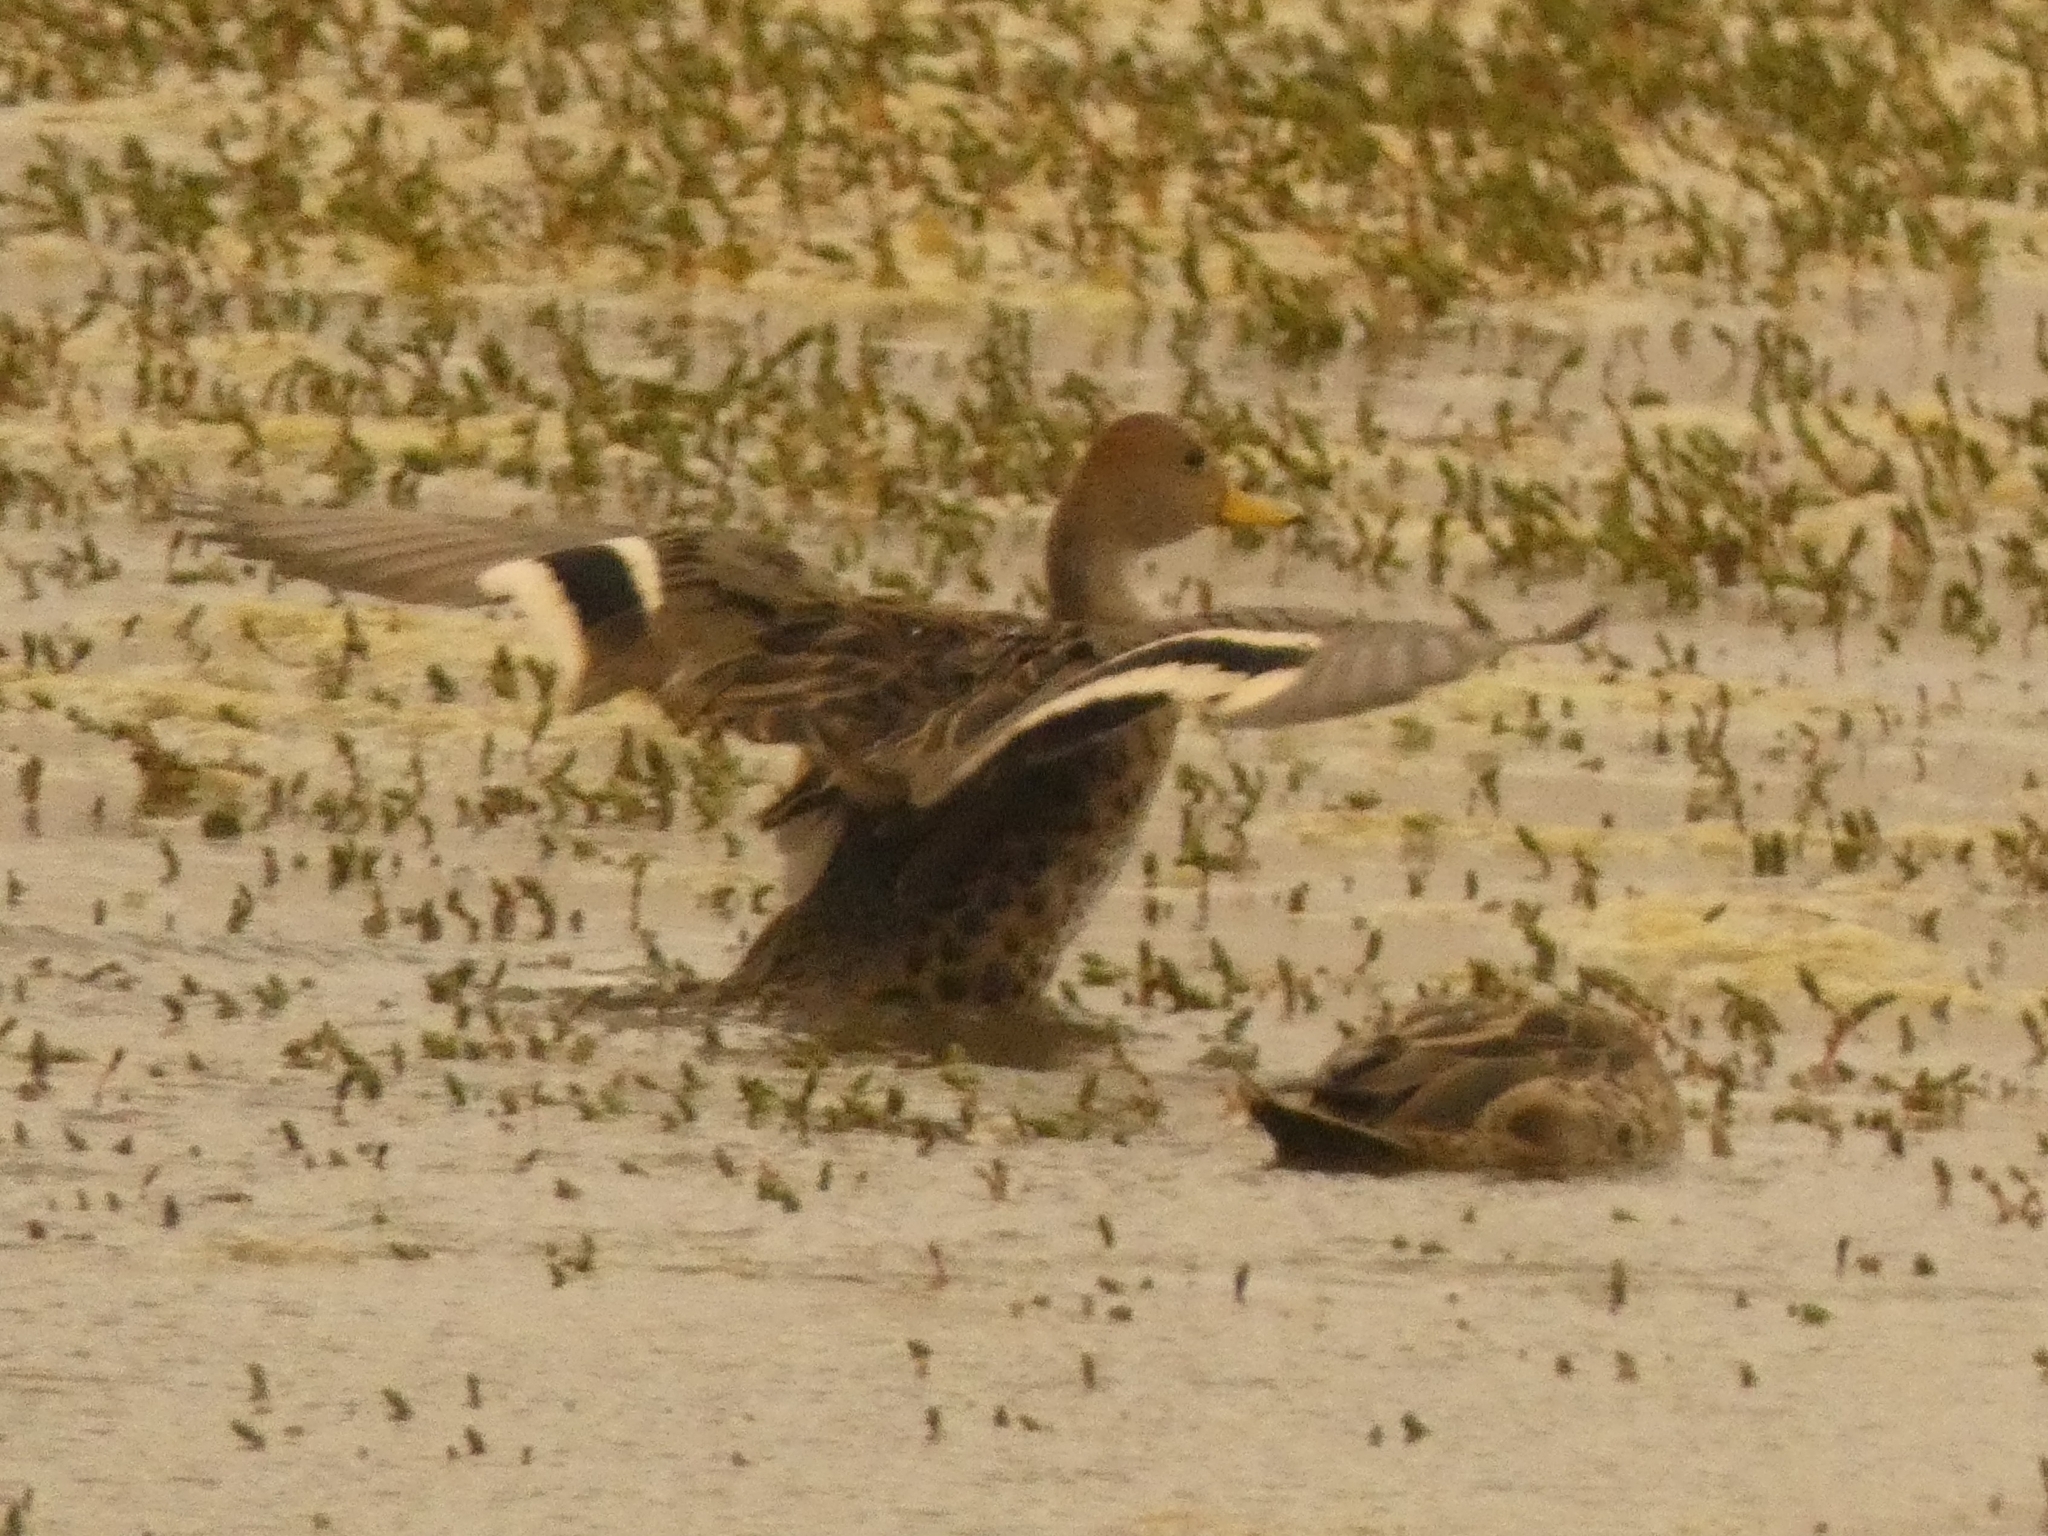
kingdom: Animalia
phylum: Chordata
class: Aves
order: Anseriformes
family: Anatidae
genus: Anas
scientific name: Anas georgica
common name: Yellow-billed pintail
